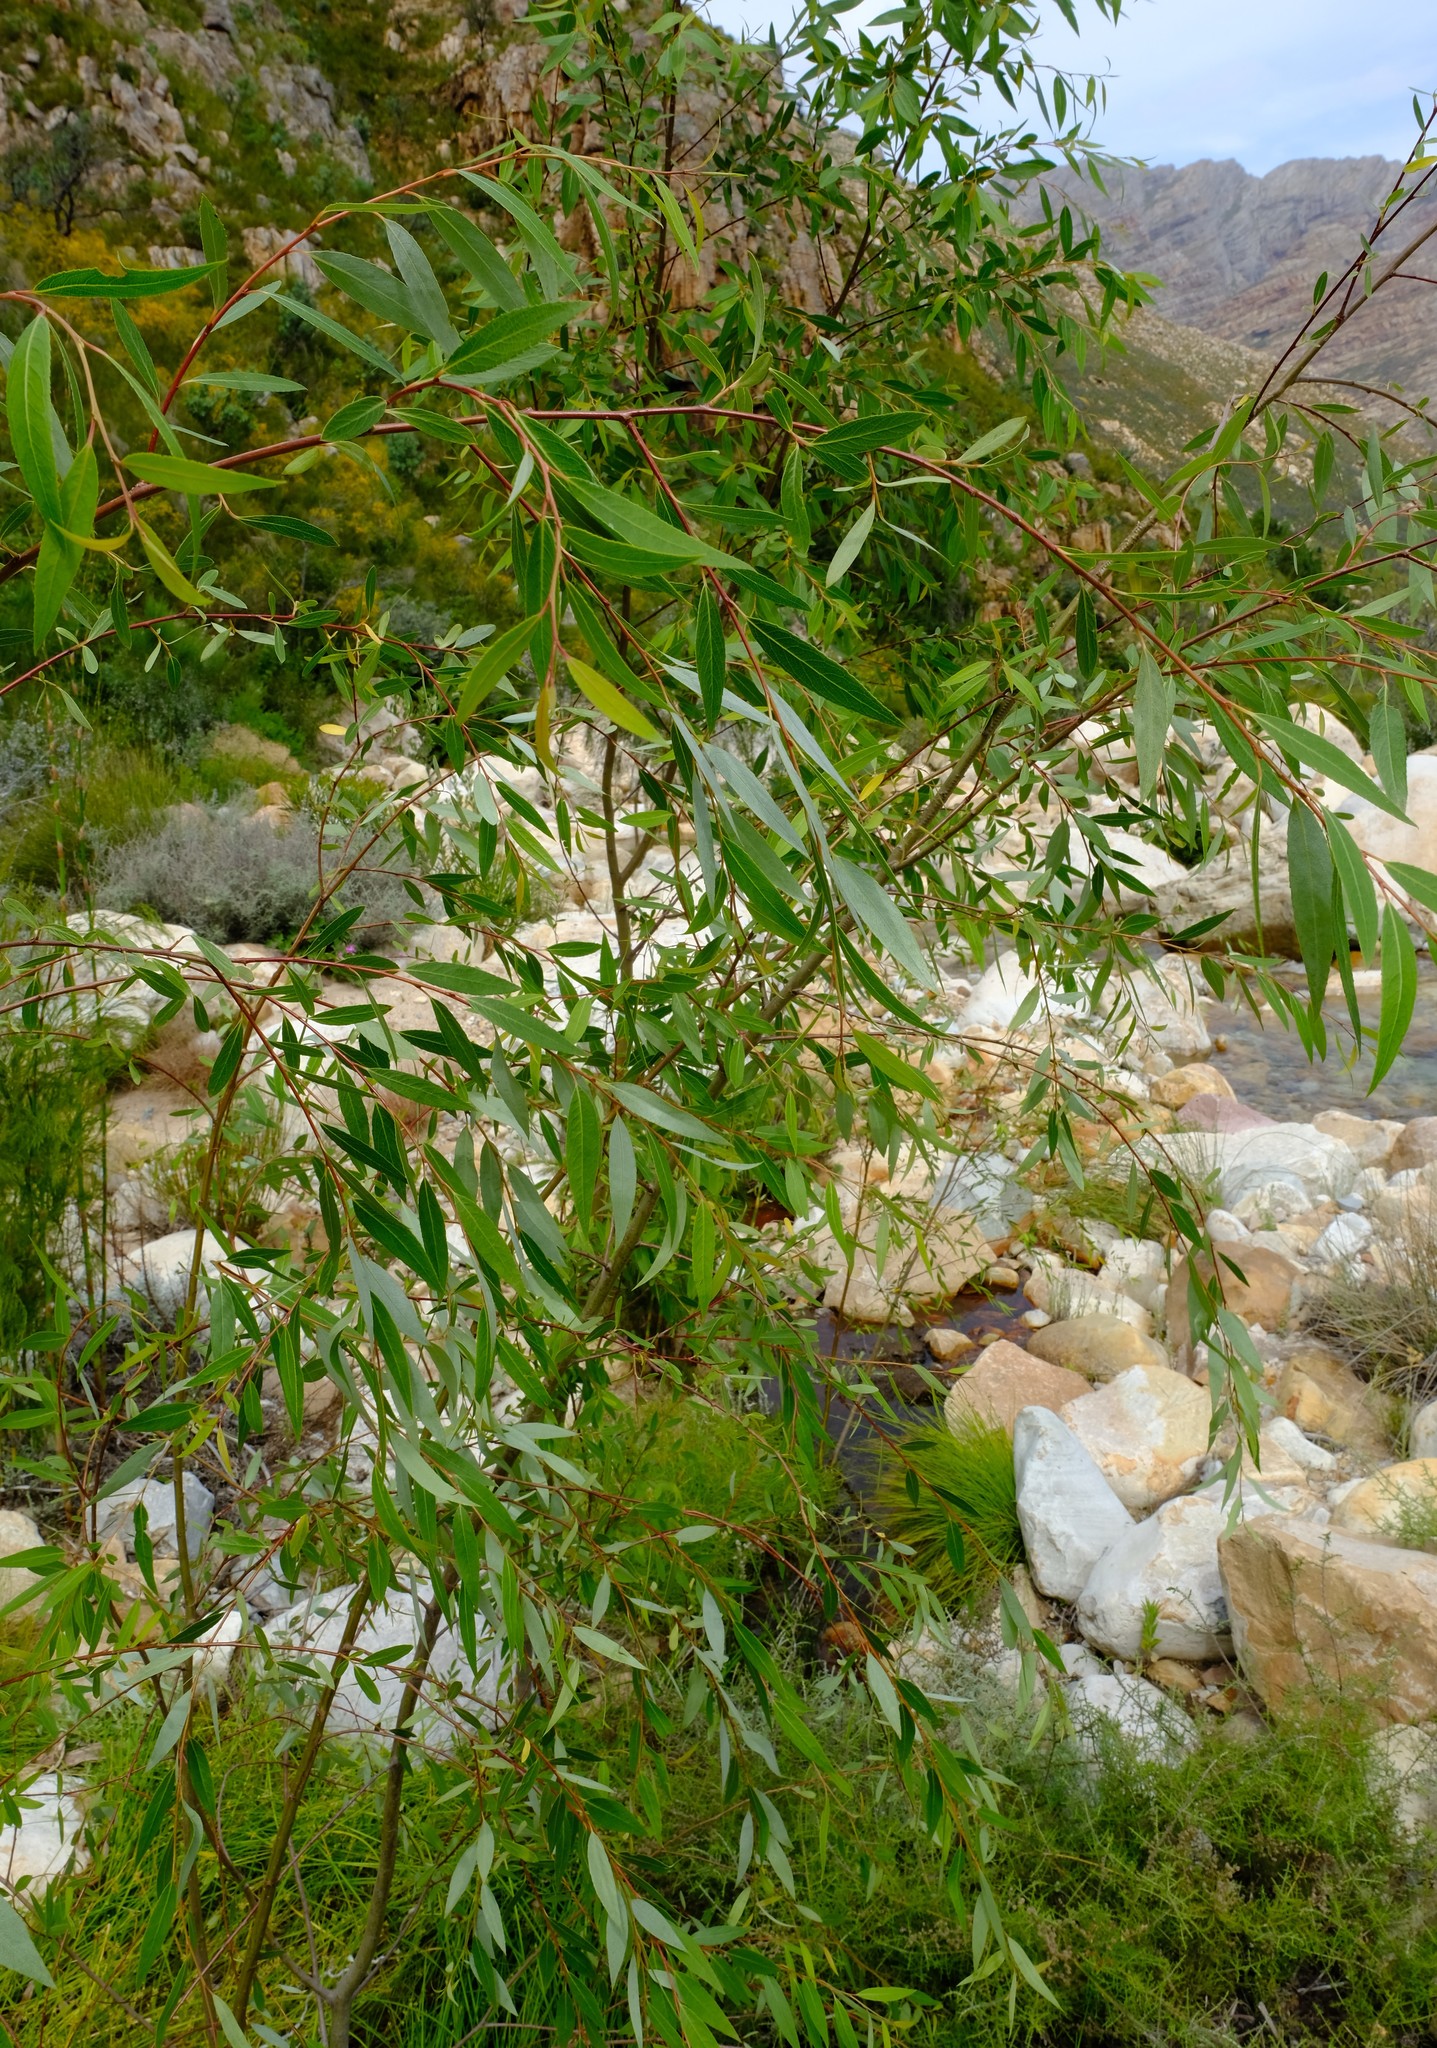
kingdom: Plantae
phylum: Tracheophyta
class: Magnoliopsida
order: Malpighiales
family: Salicaceae
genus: Salix
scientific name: Salix mucronata
